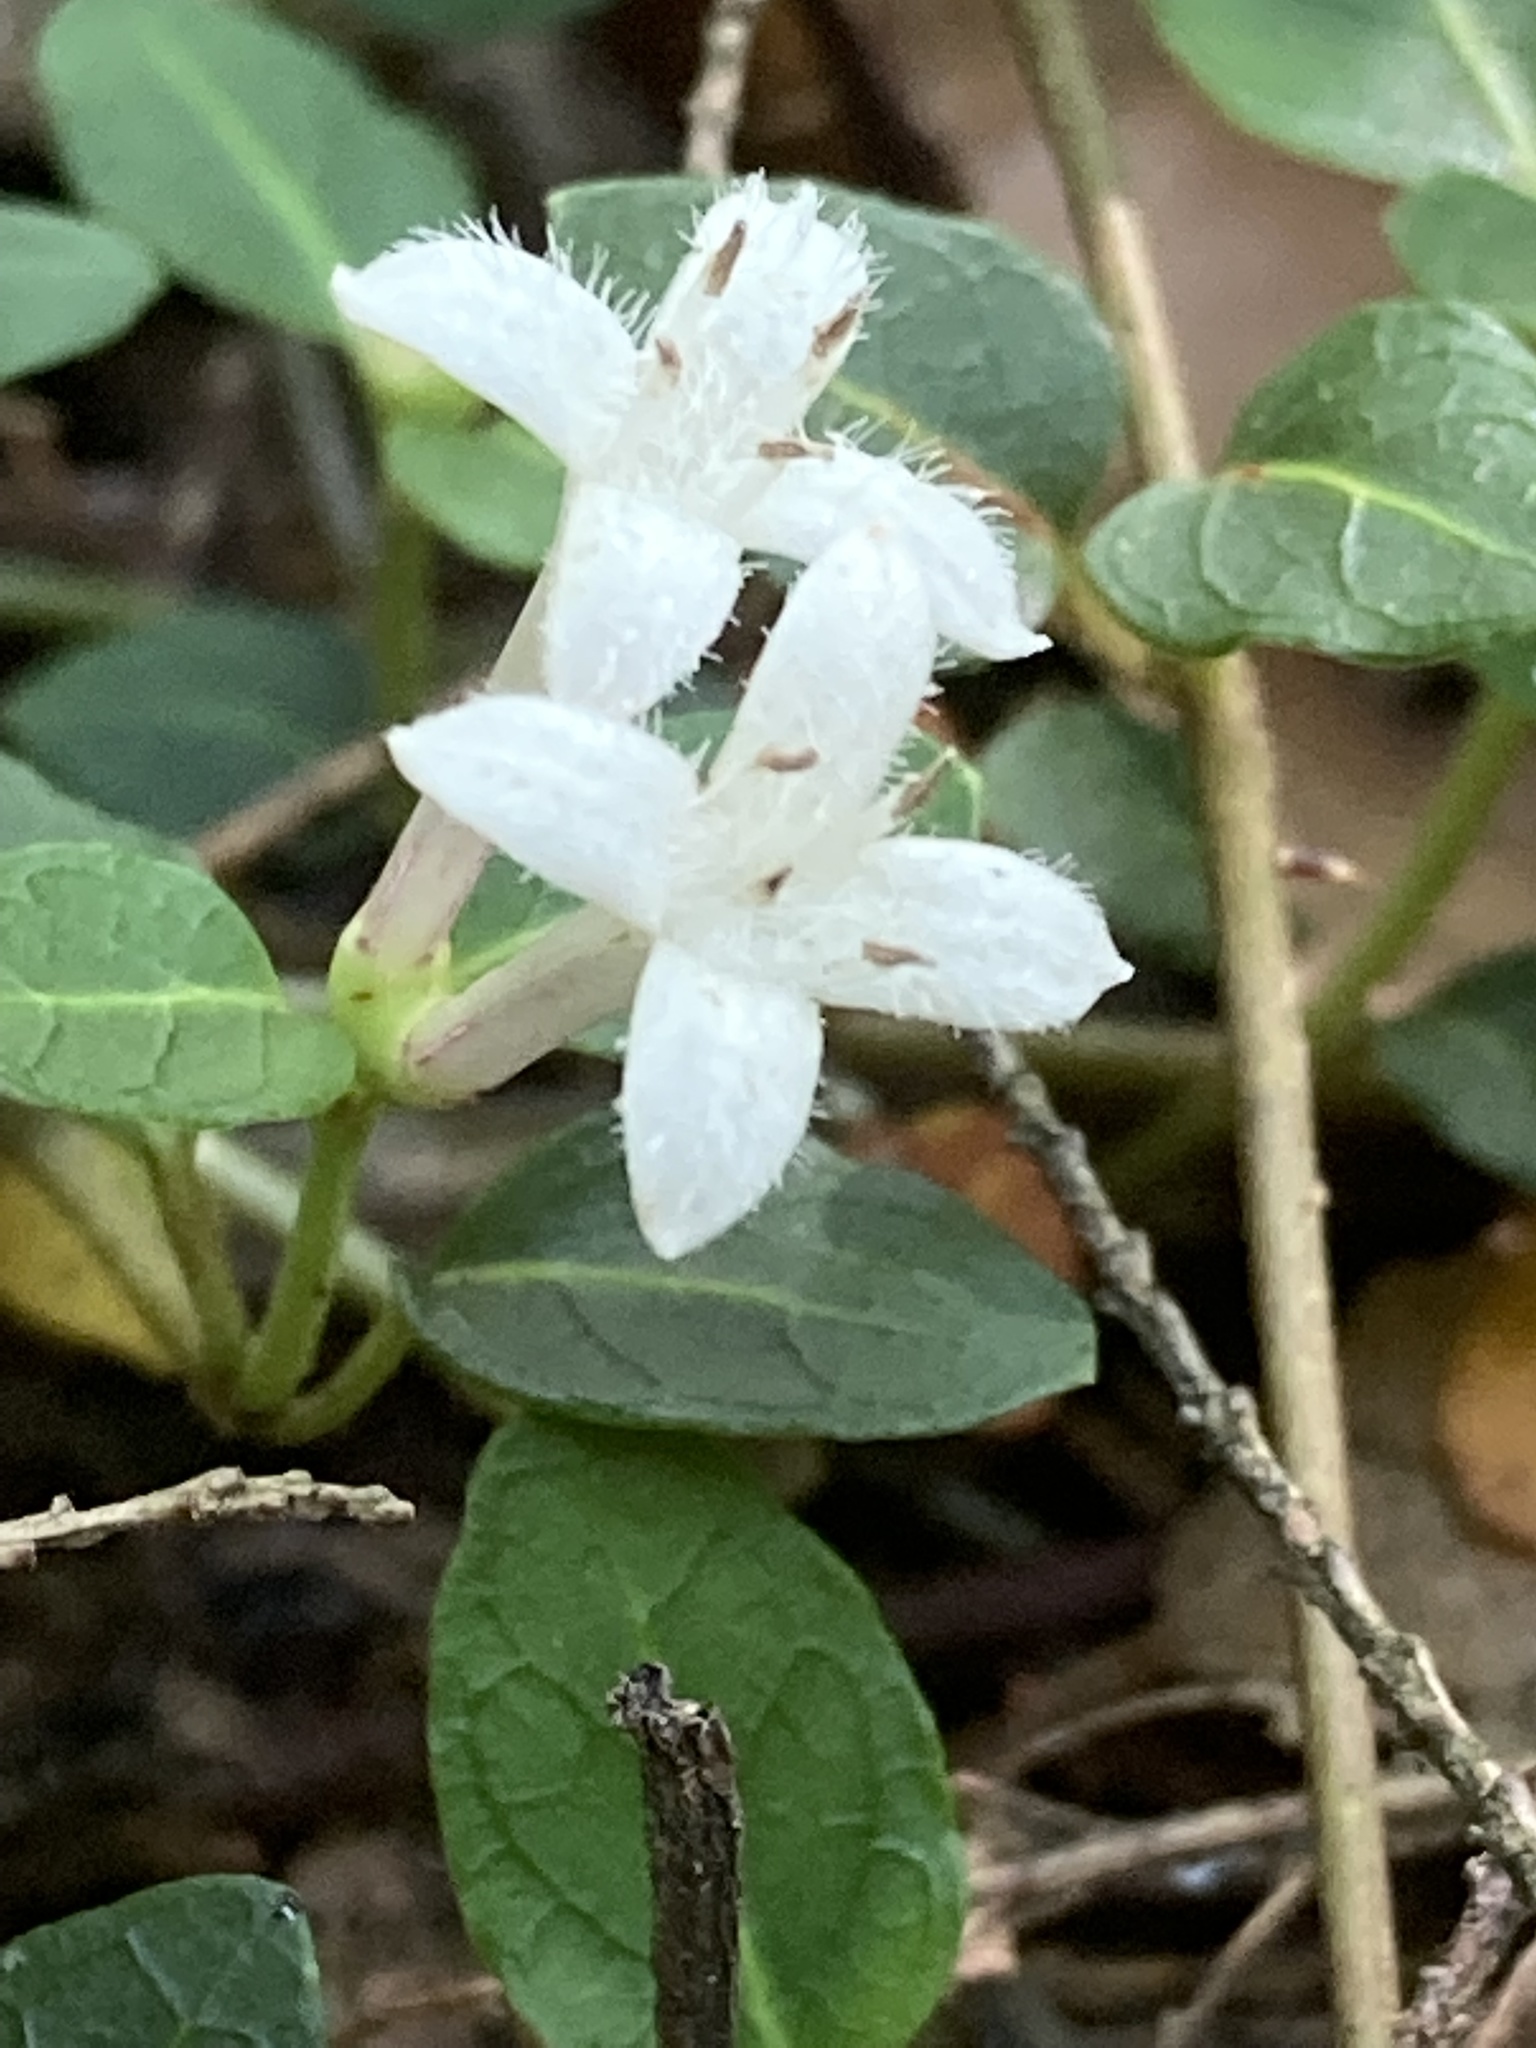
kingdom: Plantae
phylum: Tracheophyta
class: Magnoliopsida
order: Gentianales
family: Rubiaceae
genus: Mitchella
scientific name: Mitchella repens
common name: Partridge-berry
